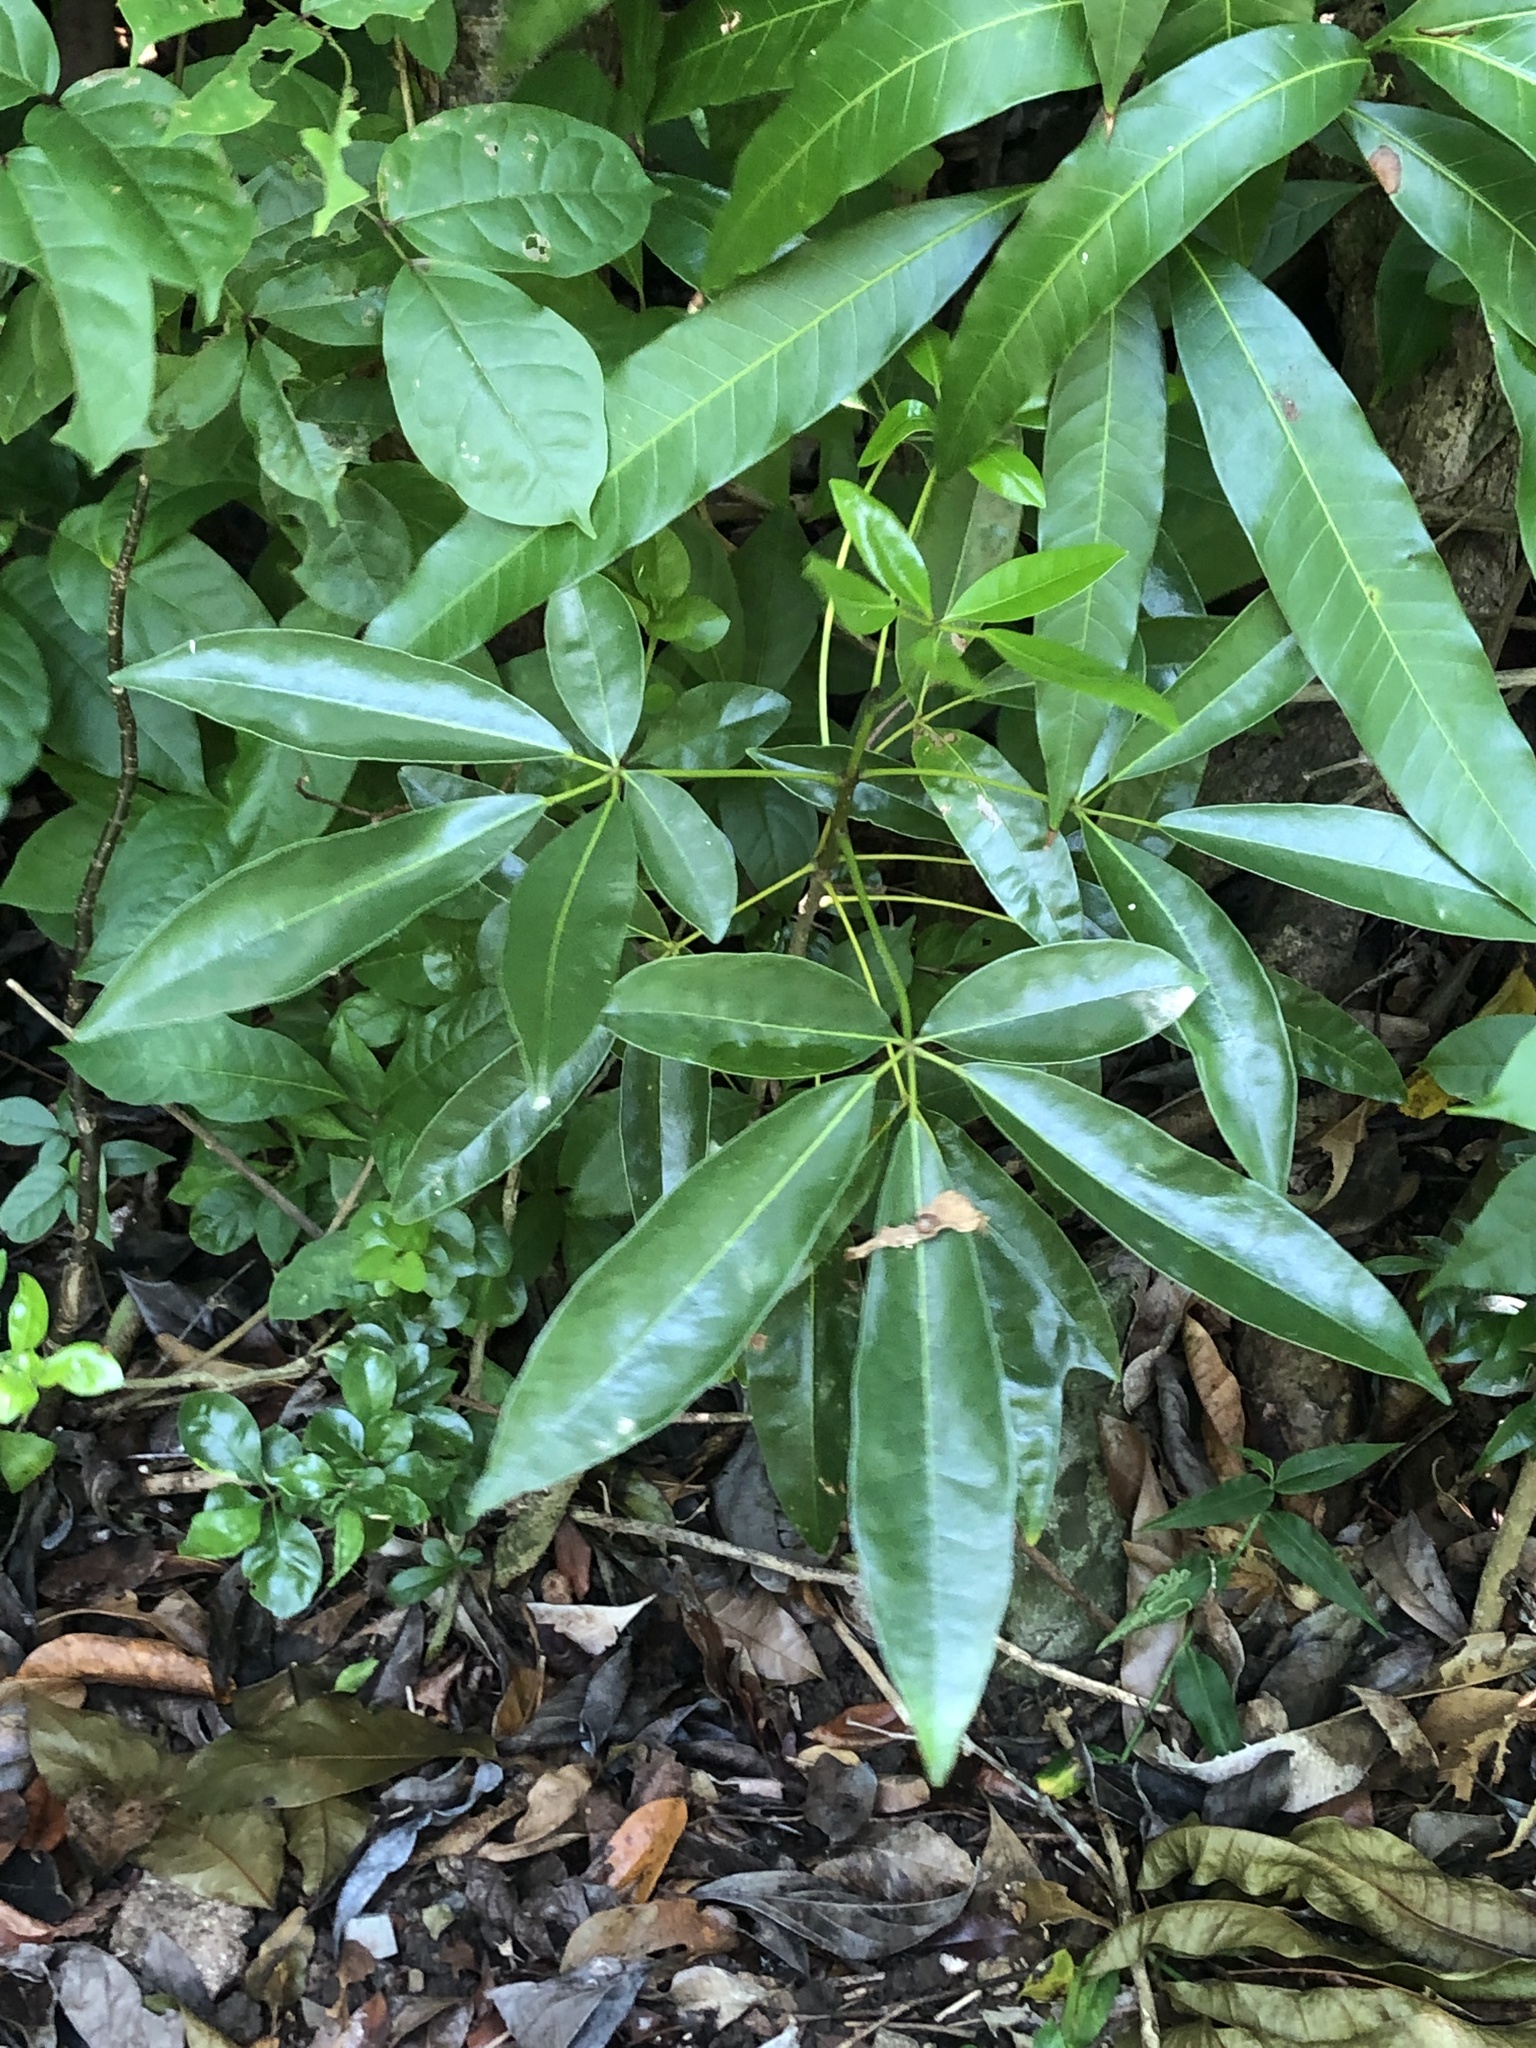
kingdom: Plantae
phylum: Tracheophyta
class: Magnoliopsida
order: Lamiales
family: Bignoniaceae
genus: Tabebuia
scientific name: Tabebuia heterophylla
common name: White cedar
